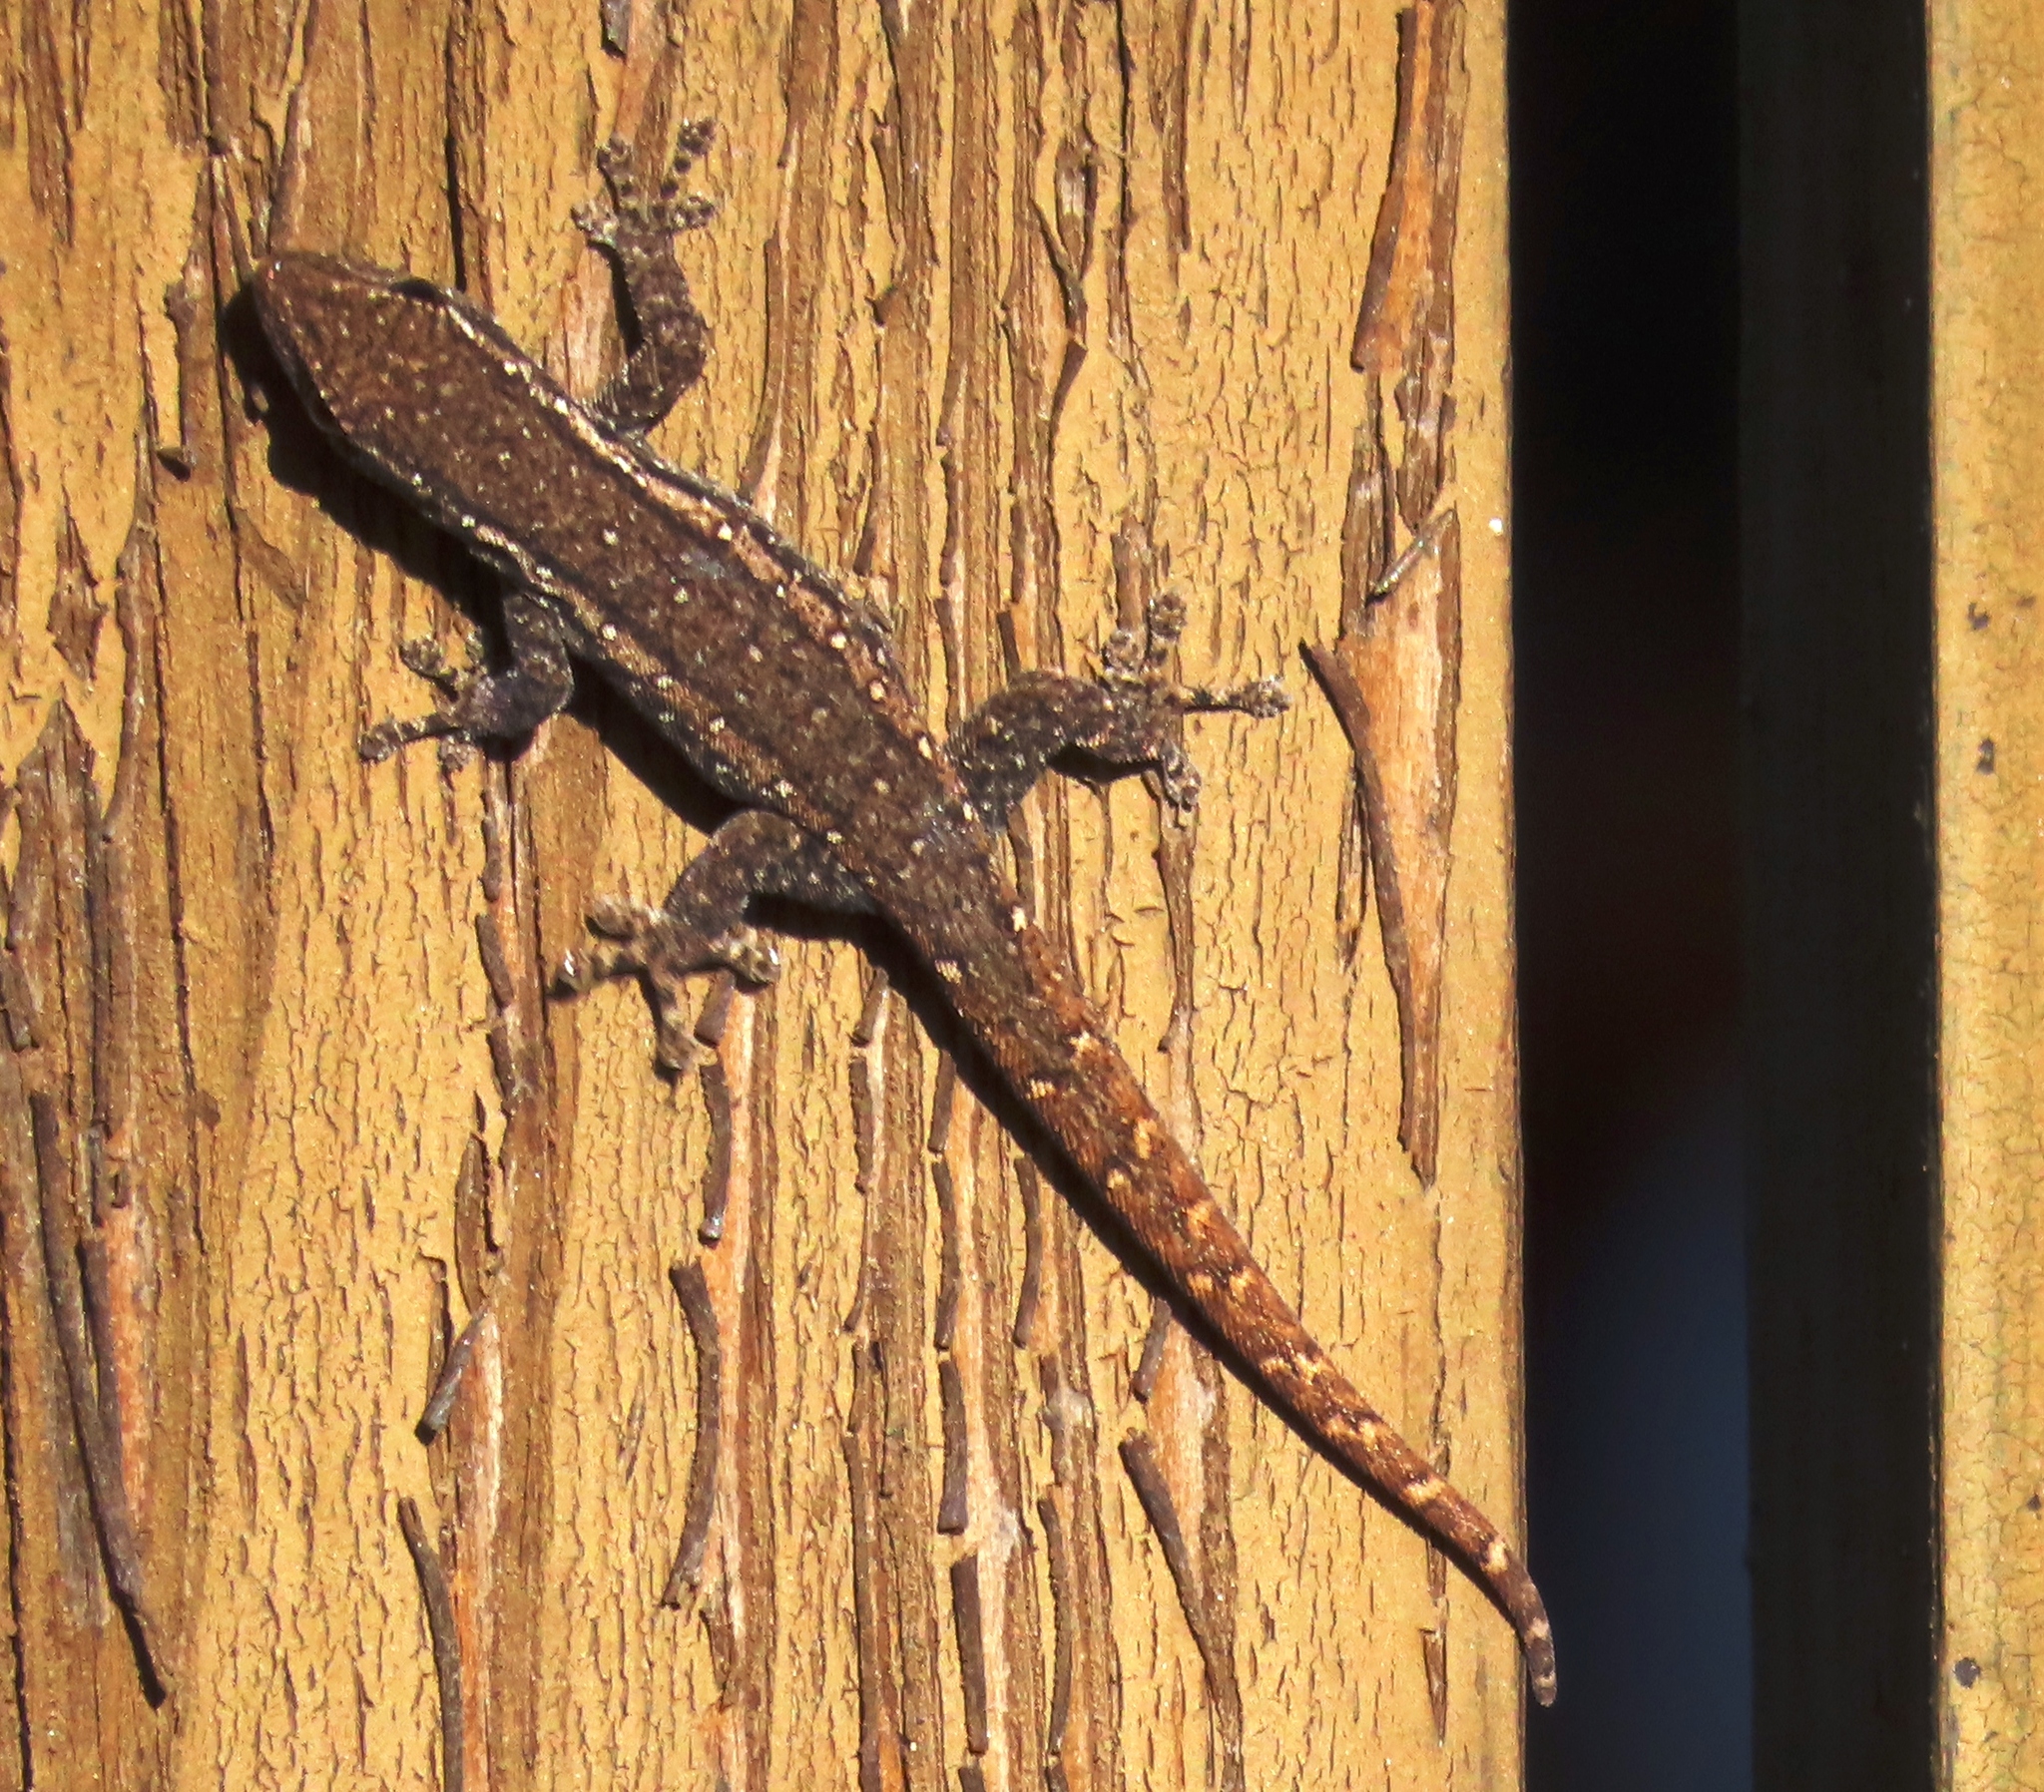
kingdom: Animalia
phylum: Chordata
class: Squamata
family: Gekkonidae
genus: Lygodactylus
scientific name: Lygodactylus capensis
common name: Cape dwarf gecko
